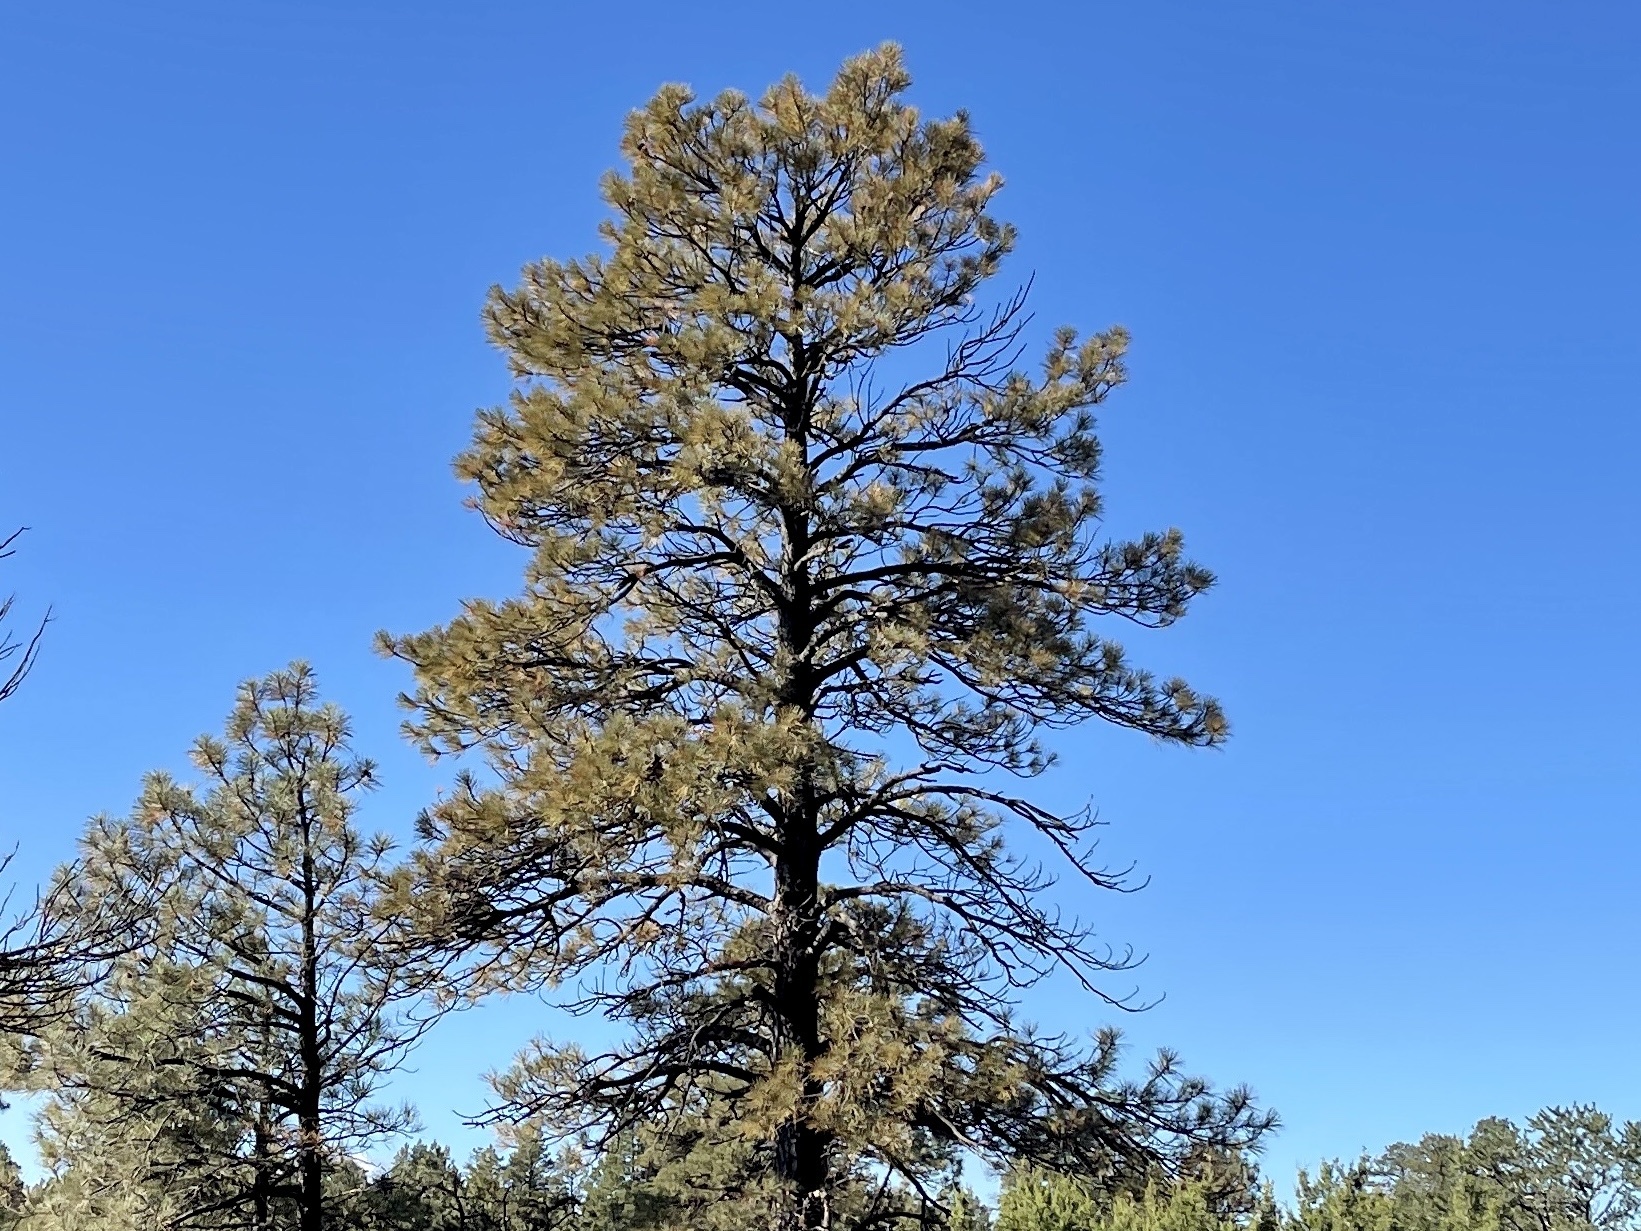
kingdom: Plantae
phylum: Tracheophyta
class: Pinopsida
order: Pinales
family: Pinaceae
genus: Pinus
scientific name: Pinus ponderosa
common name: Western yellow-pine
